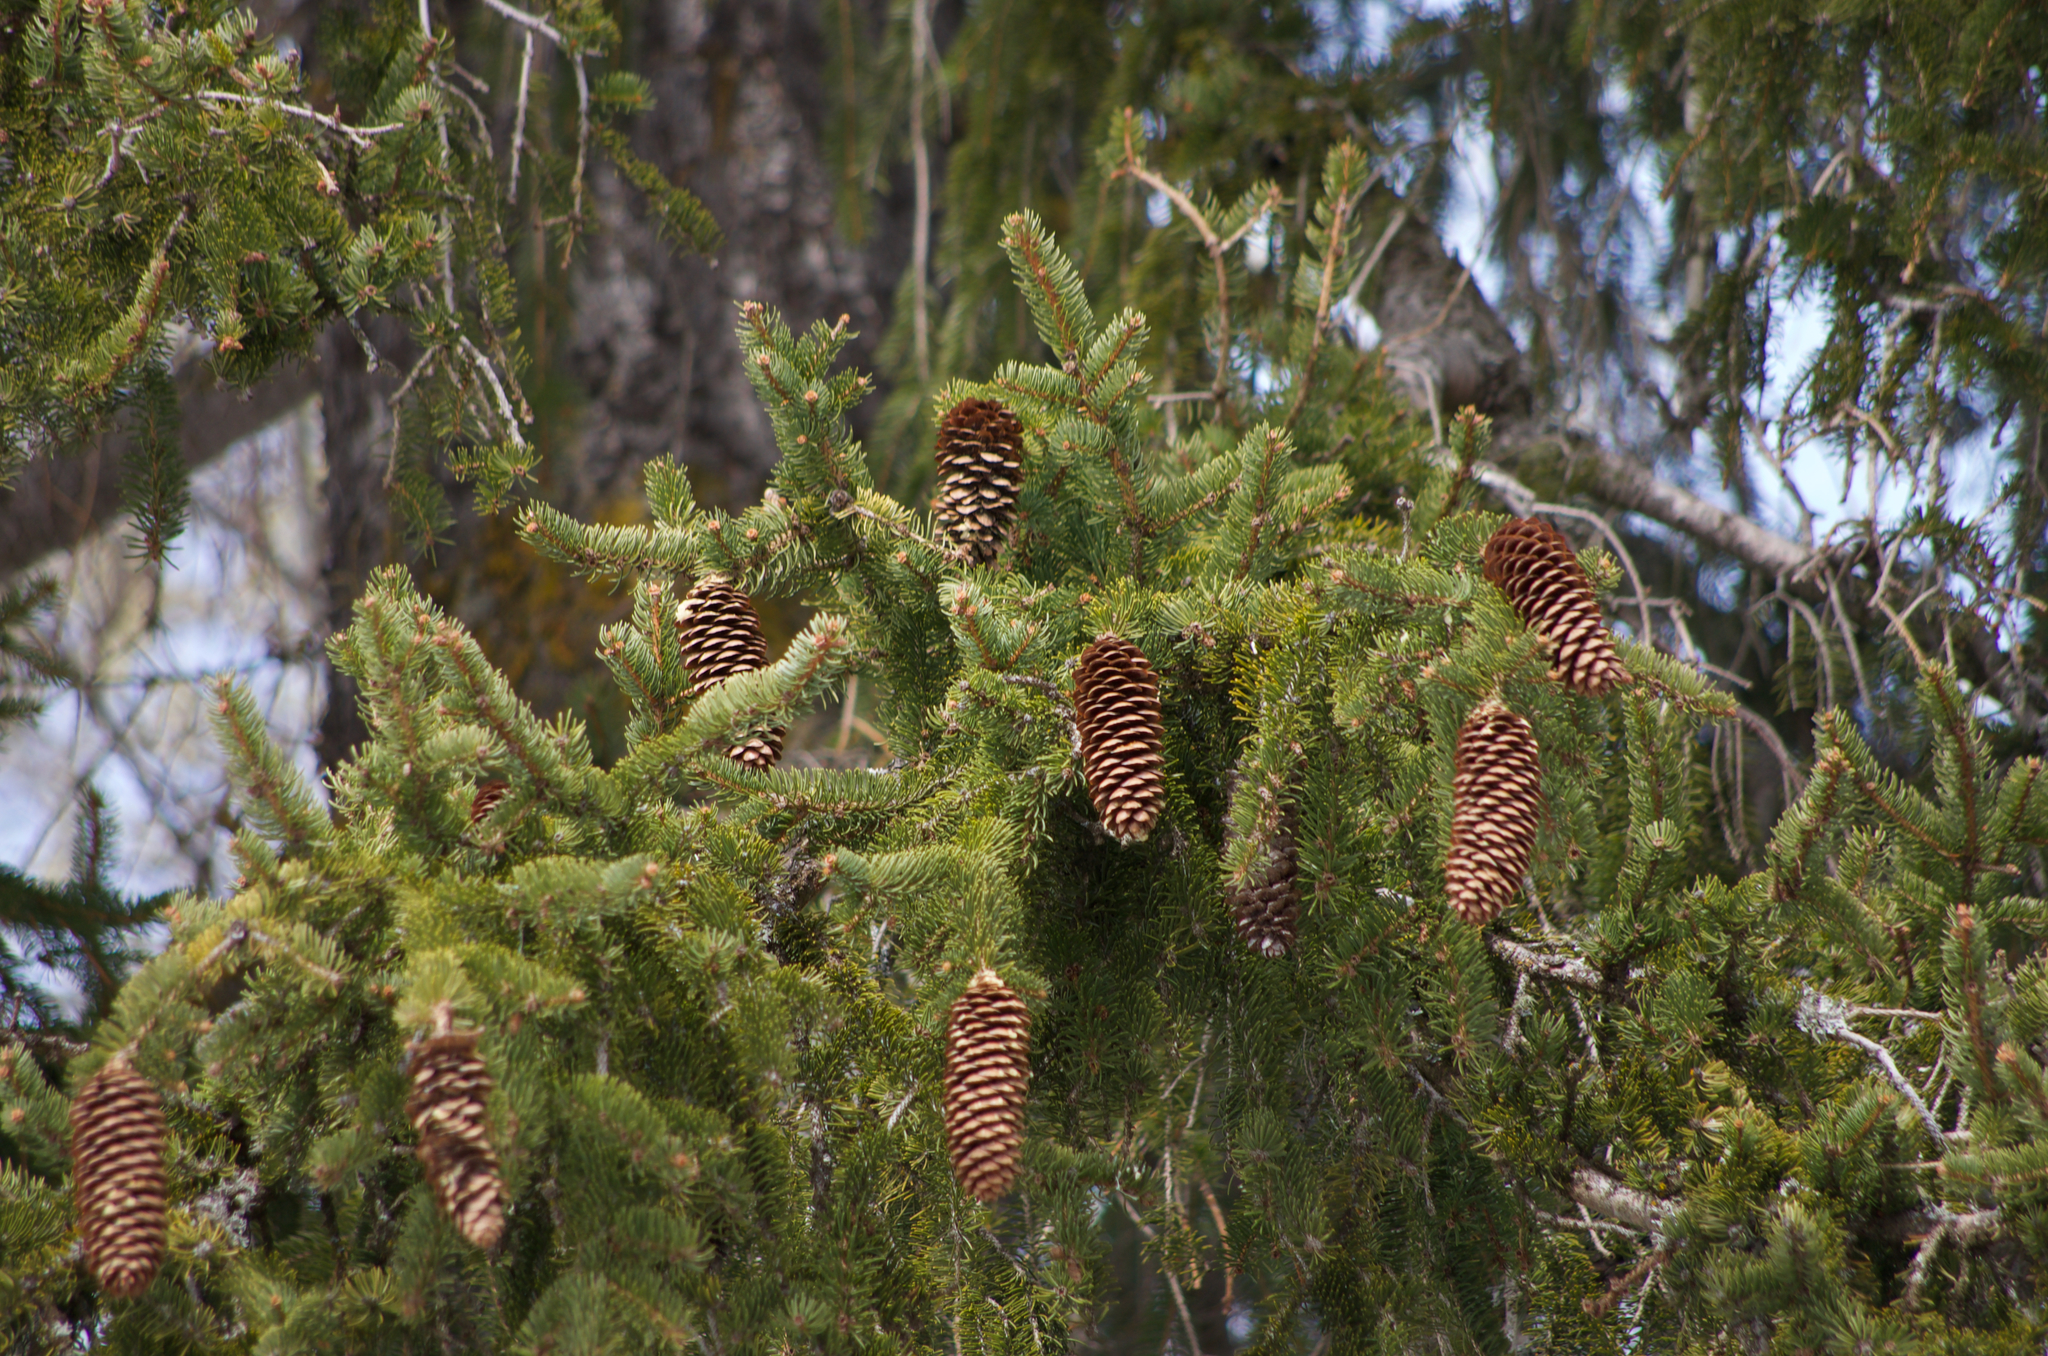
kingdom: Plantae
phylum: Tracheophyta
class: Pinopsida
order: Pinales
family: Pinaceae
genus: Picea
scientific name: Picea abies
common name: Norway spruce
